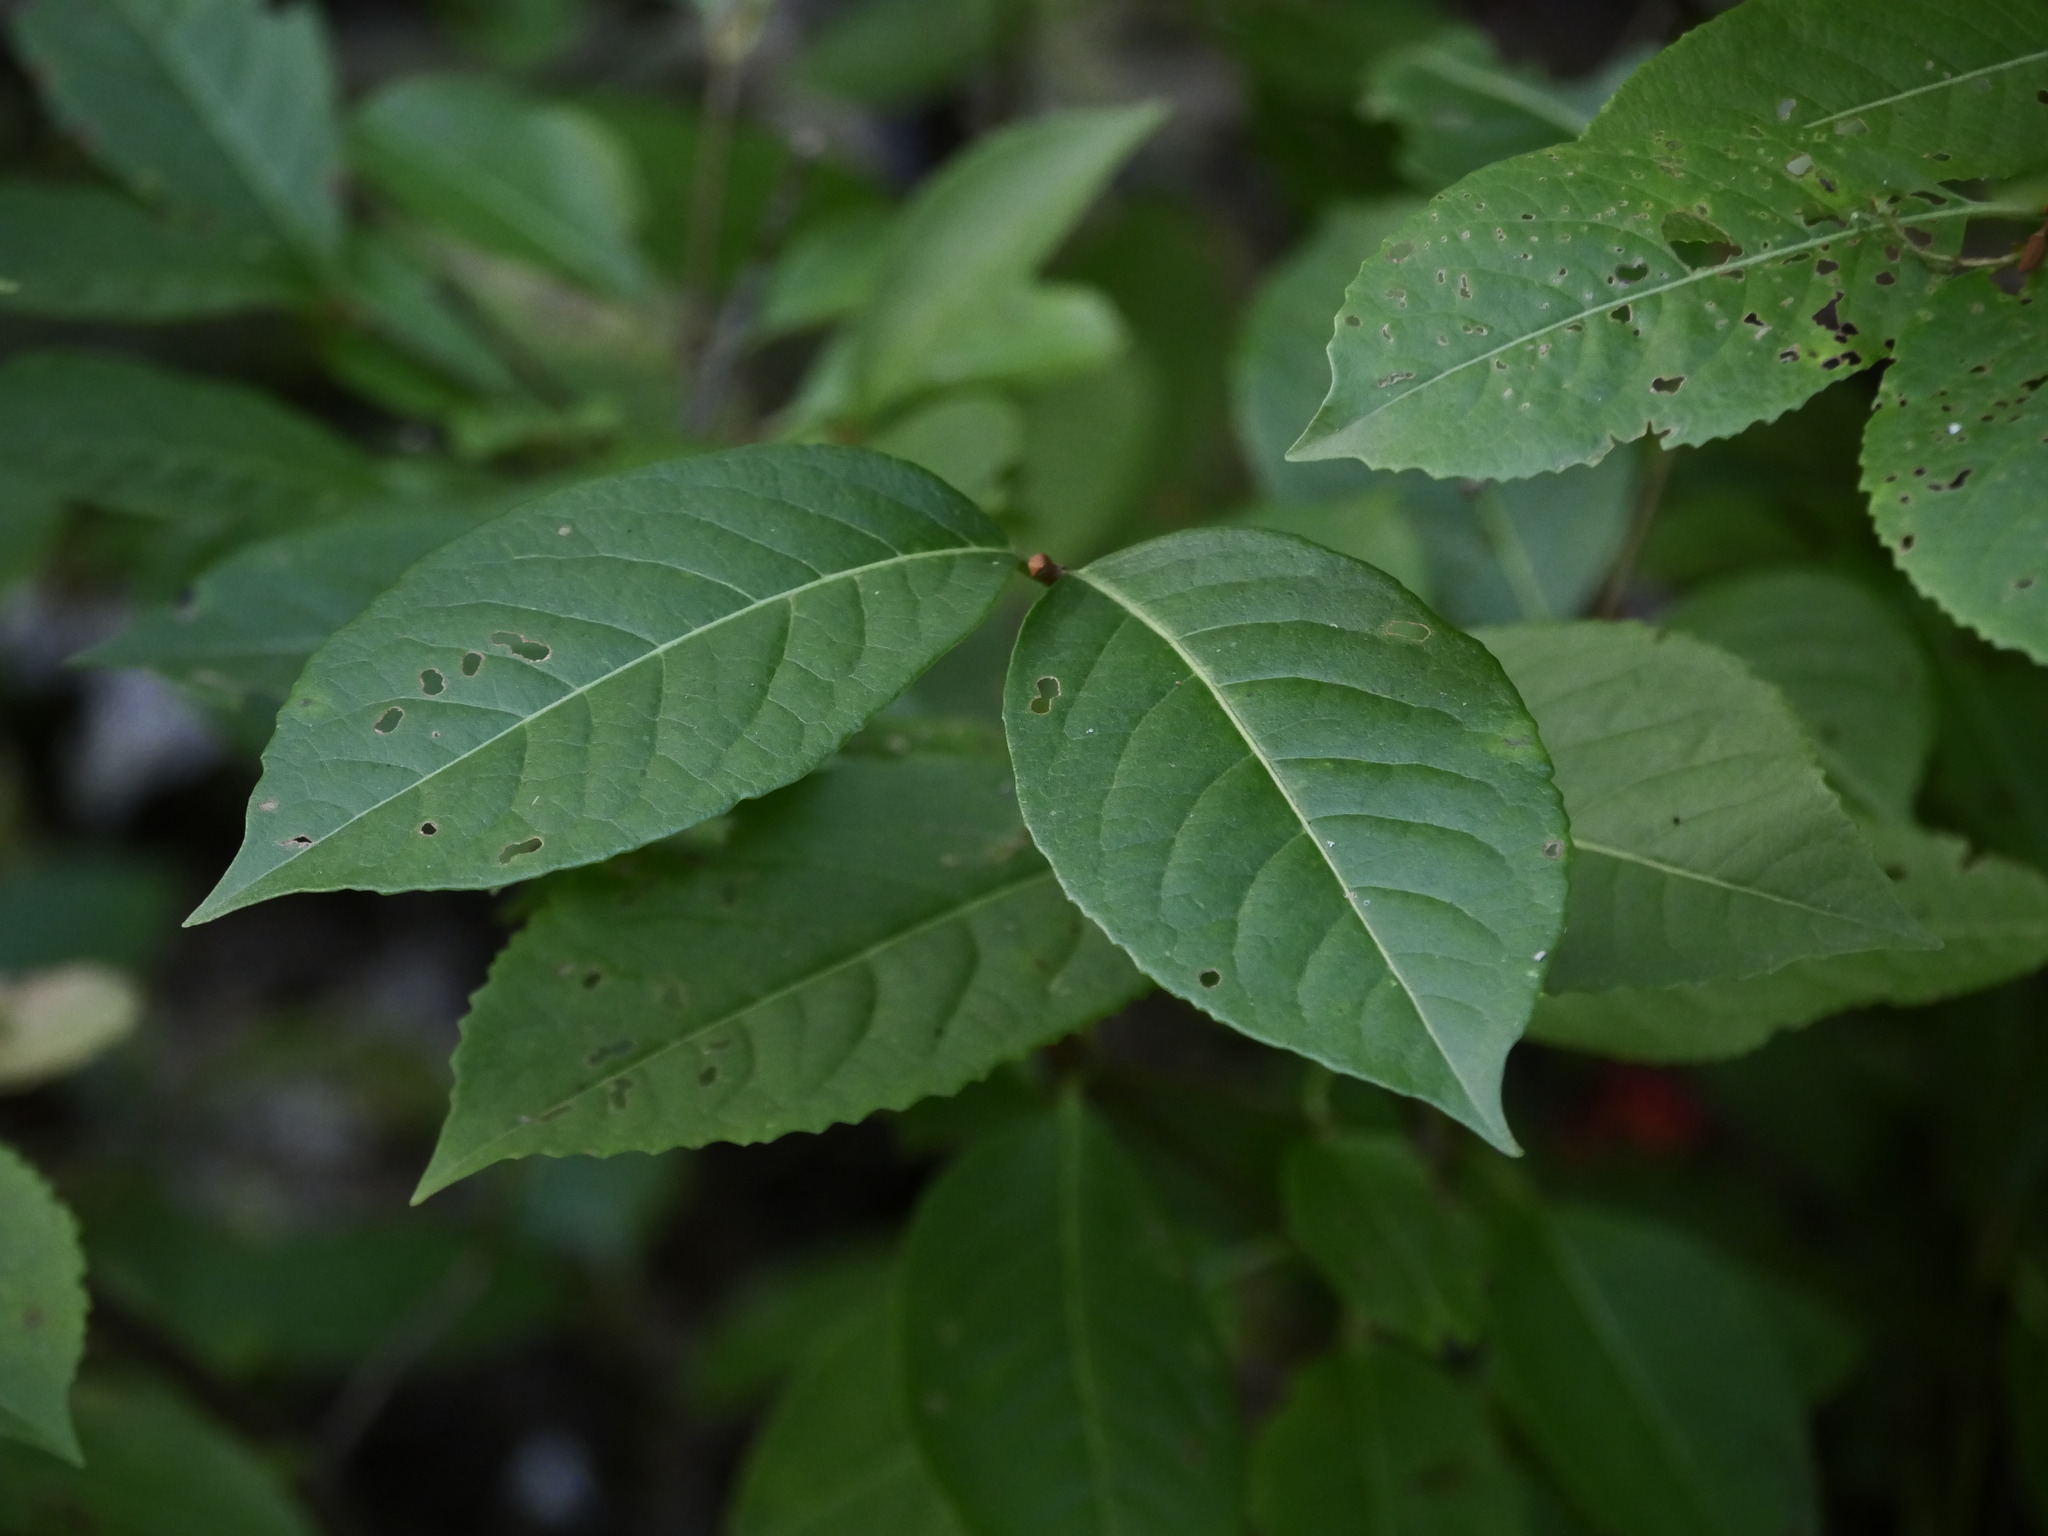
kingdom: Plantae
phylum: Tracheophyta
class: Magnoliopsida
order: Dipsacales
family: Viburnaceae
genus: Viburnum
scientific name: Viburnum cassinoides
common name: Swamp haw
